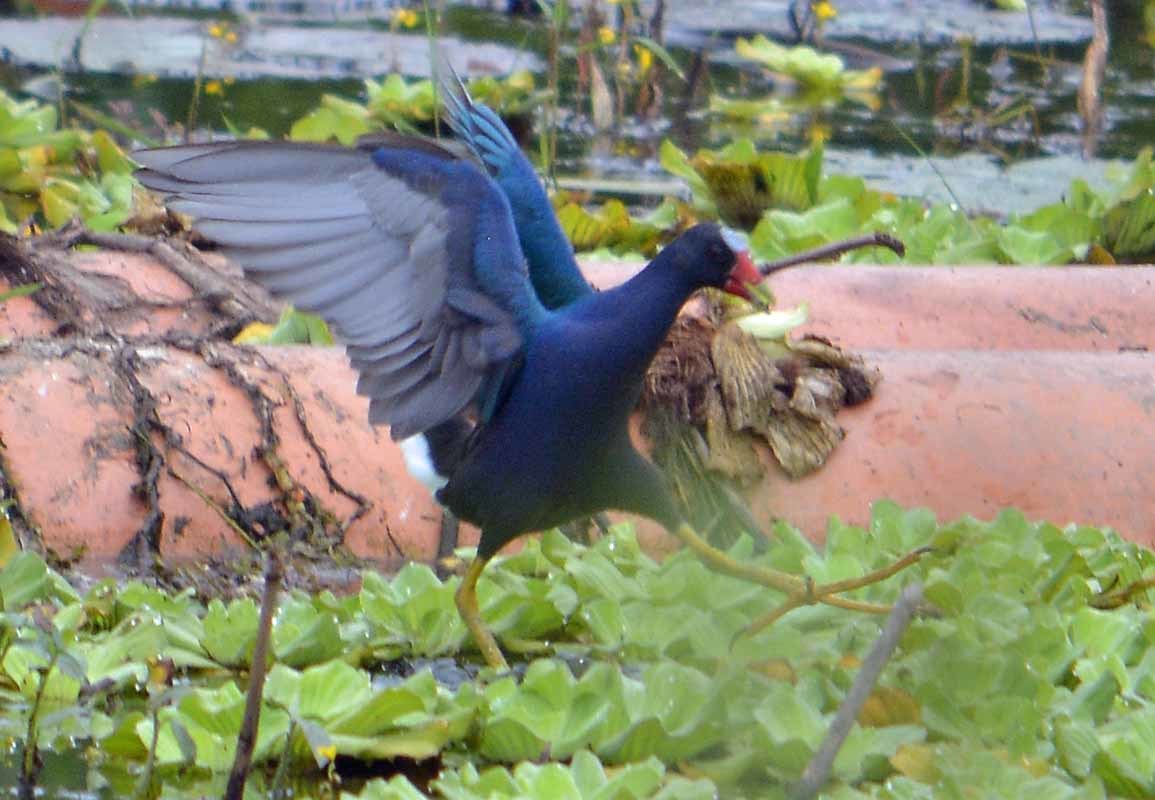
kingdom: Animalia
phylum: Chordata
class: Aves
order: Gruiformes
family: Rallidae
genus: Porphyrio
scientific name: Porphyrio martinica
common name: Purple gallinule
